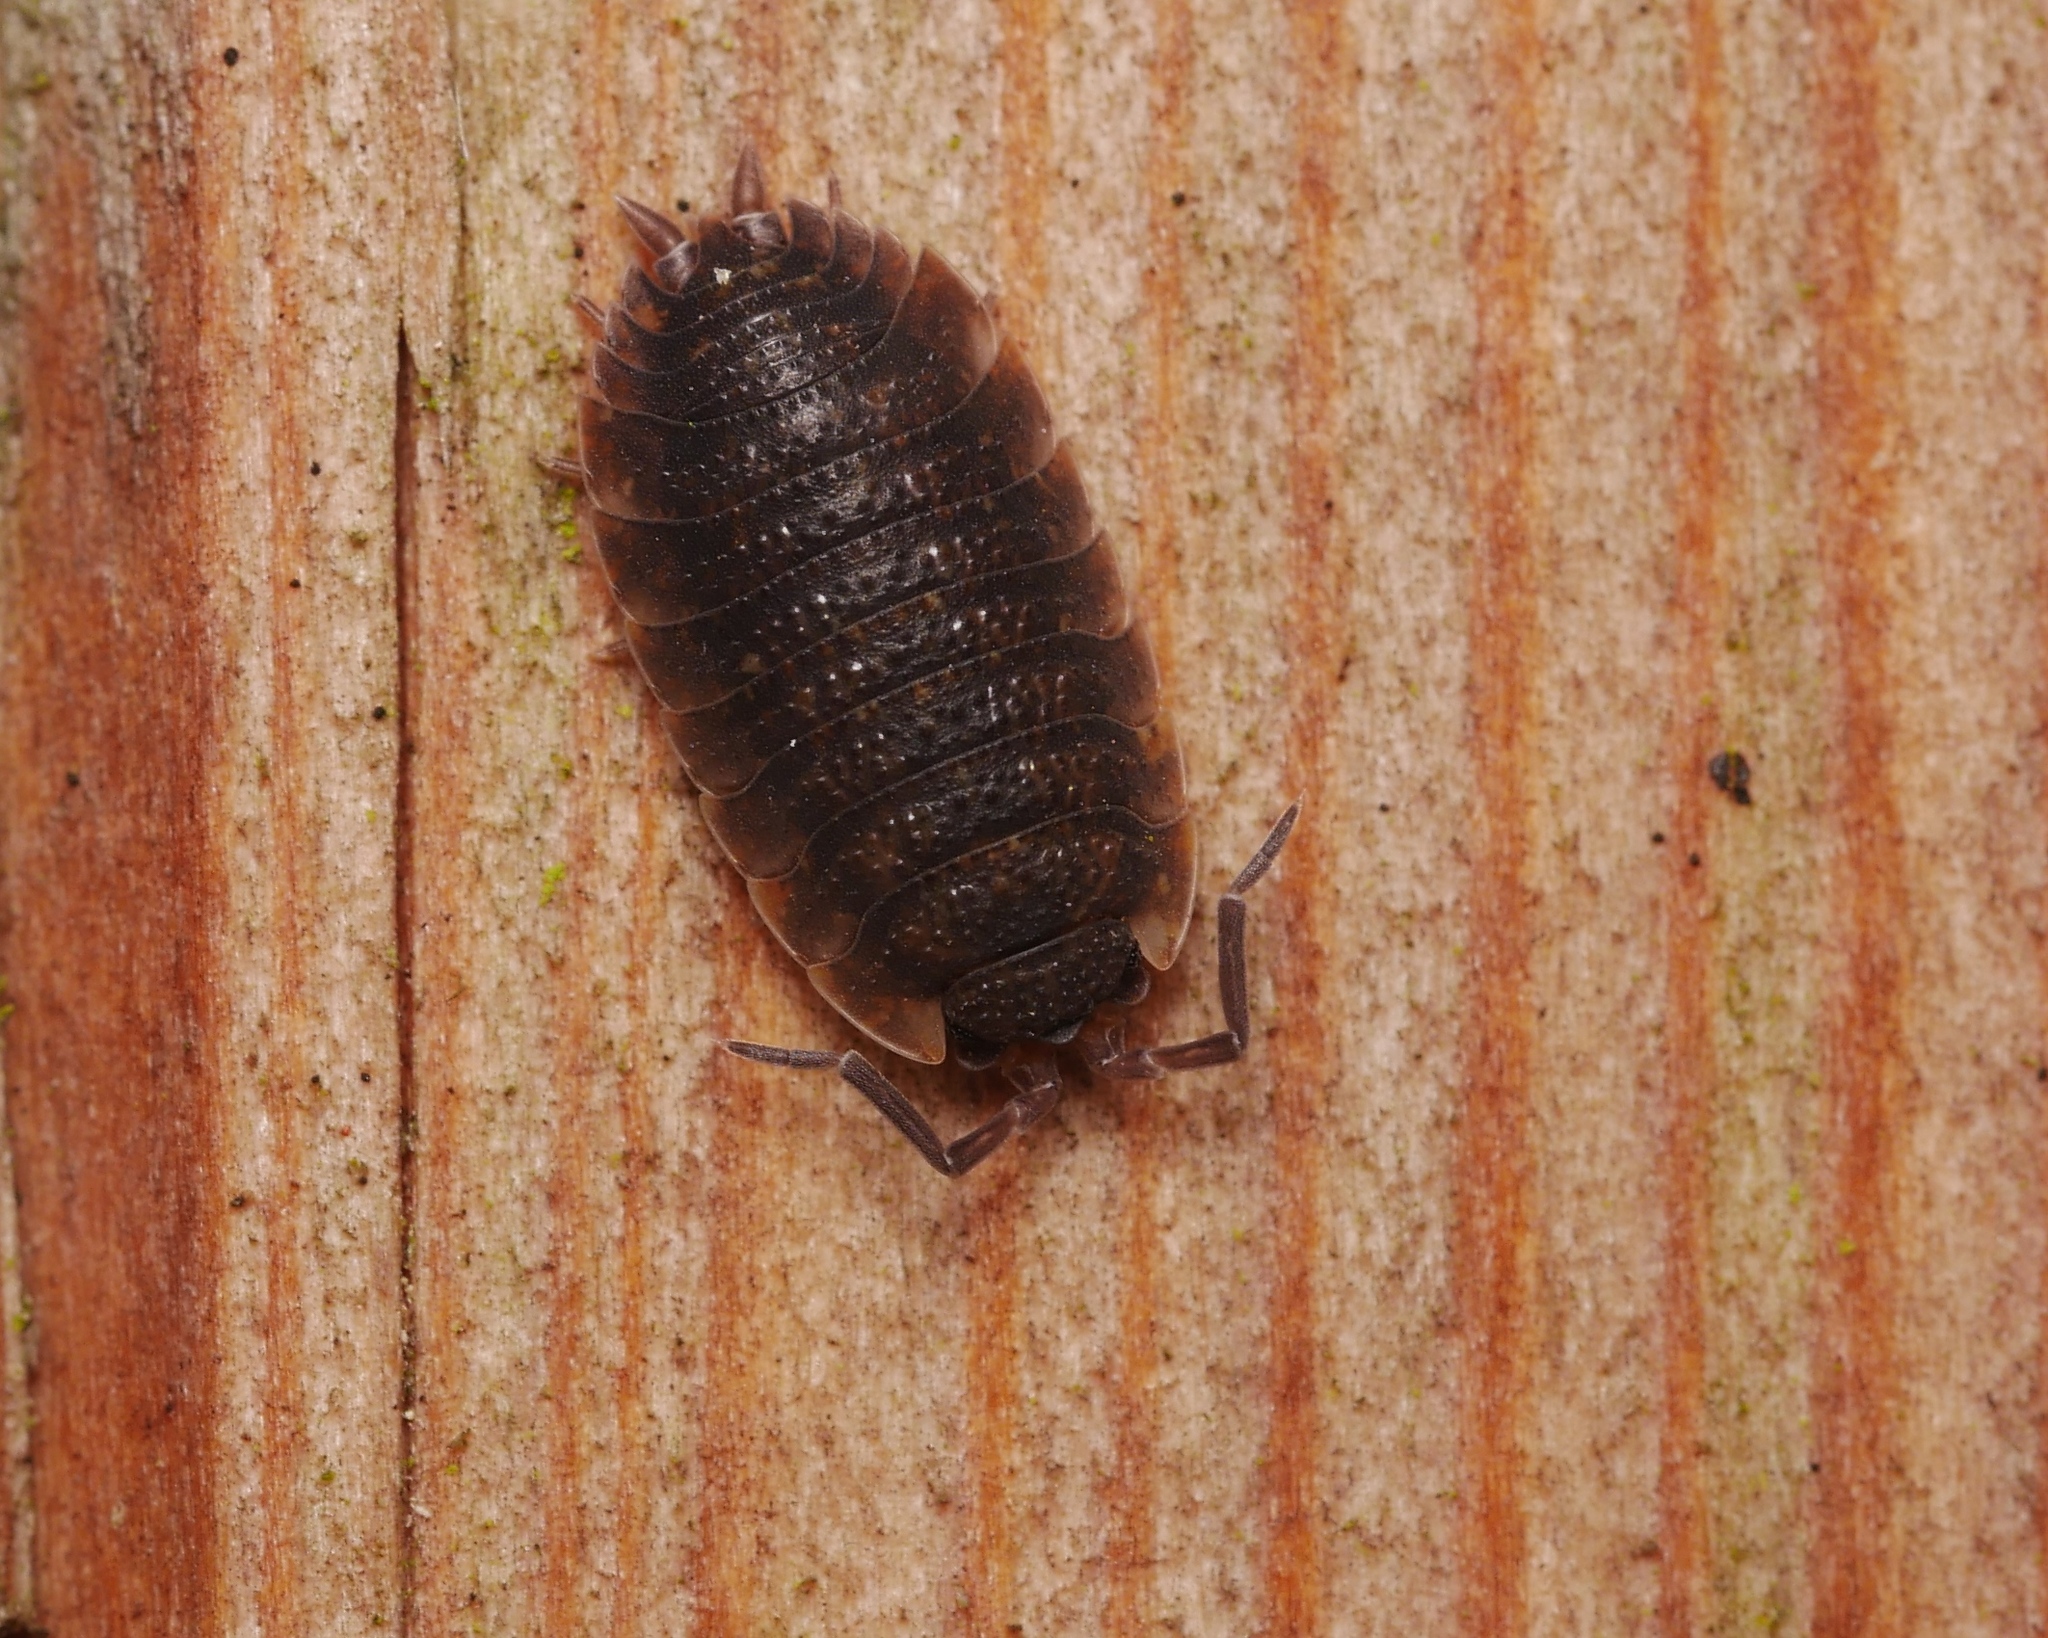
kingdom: Animalia
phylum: Arthropoda
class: Malacostraca
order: Isopoda
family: Porcellionidae
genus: Porcellio
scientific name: Porcellio scaber
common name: Common rough woodlouse
